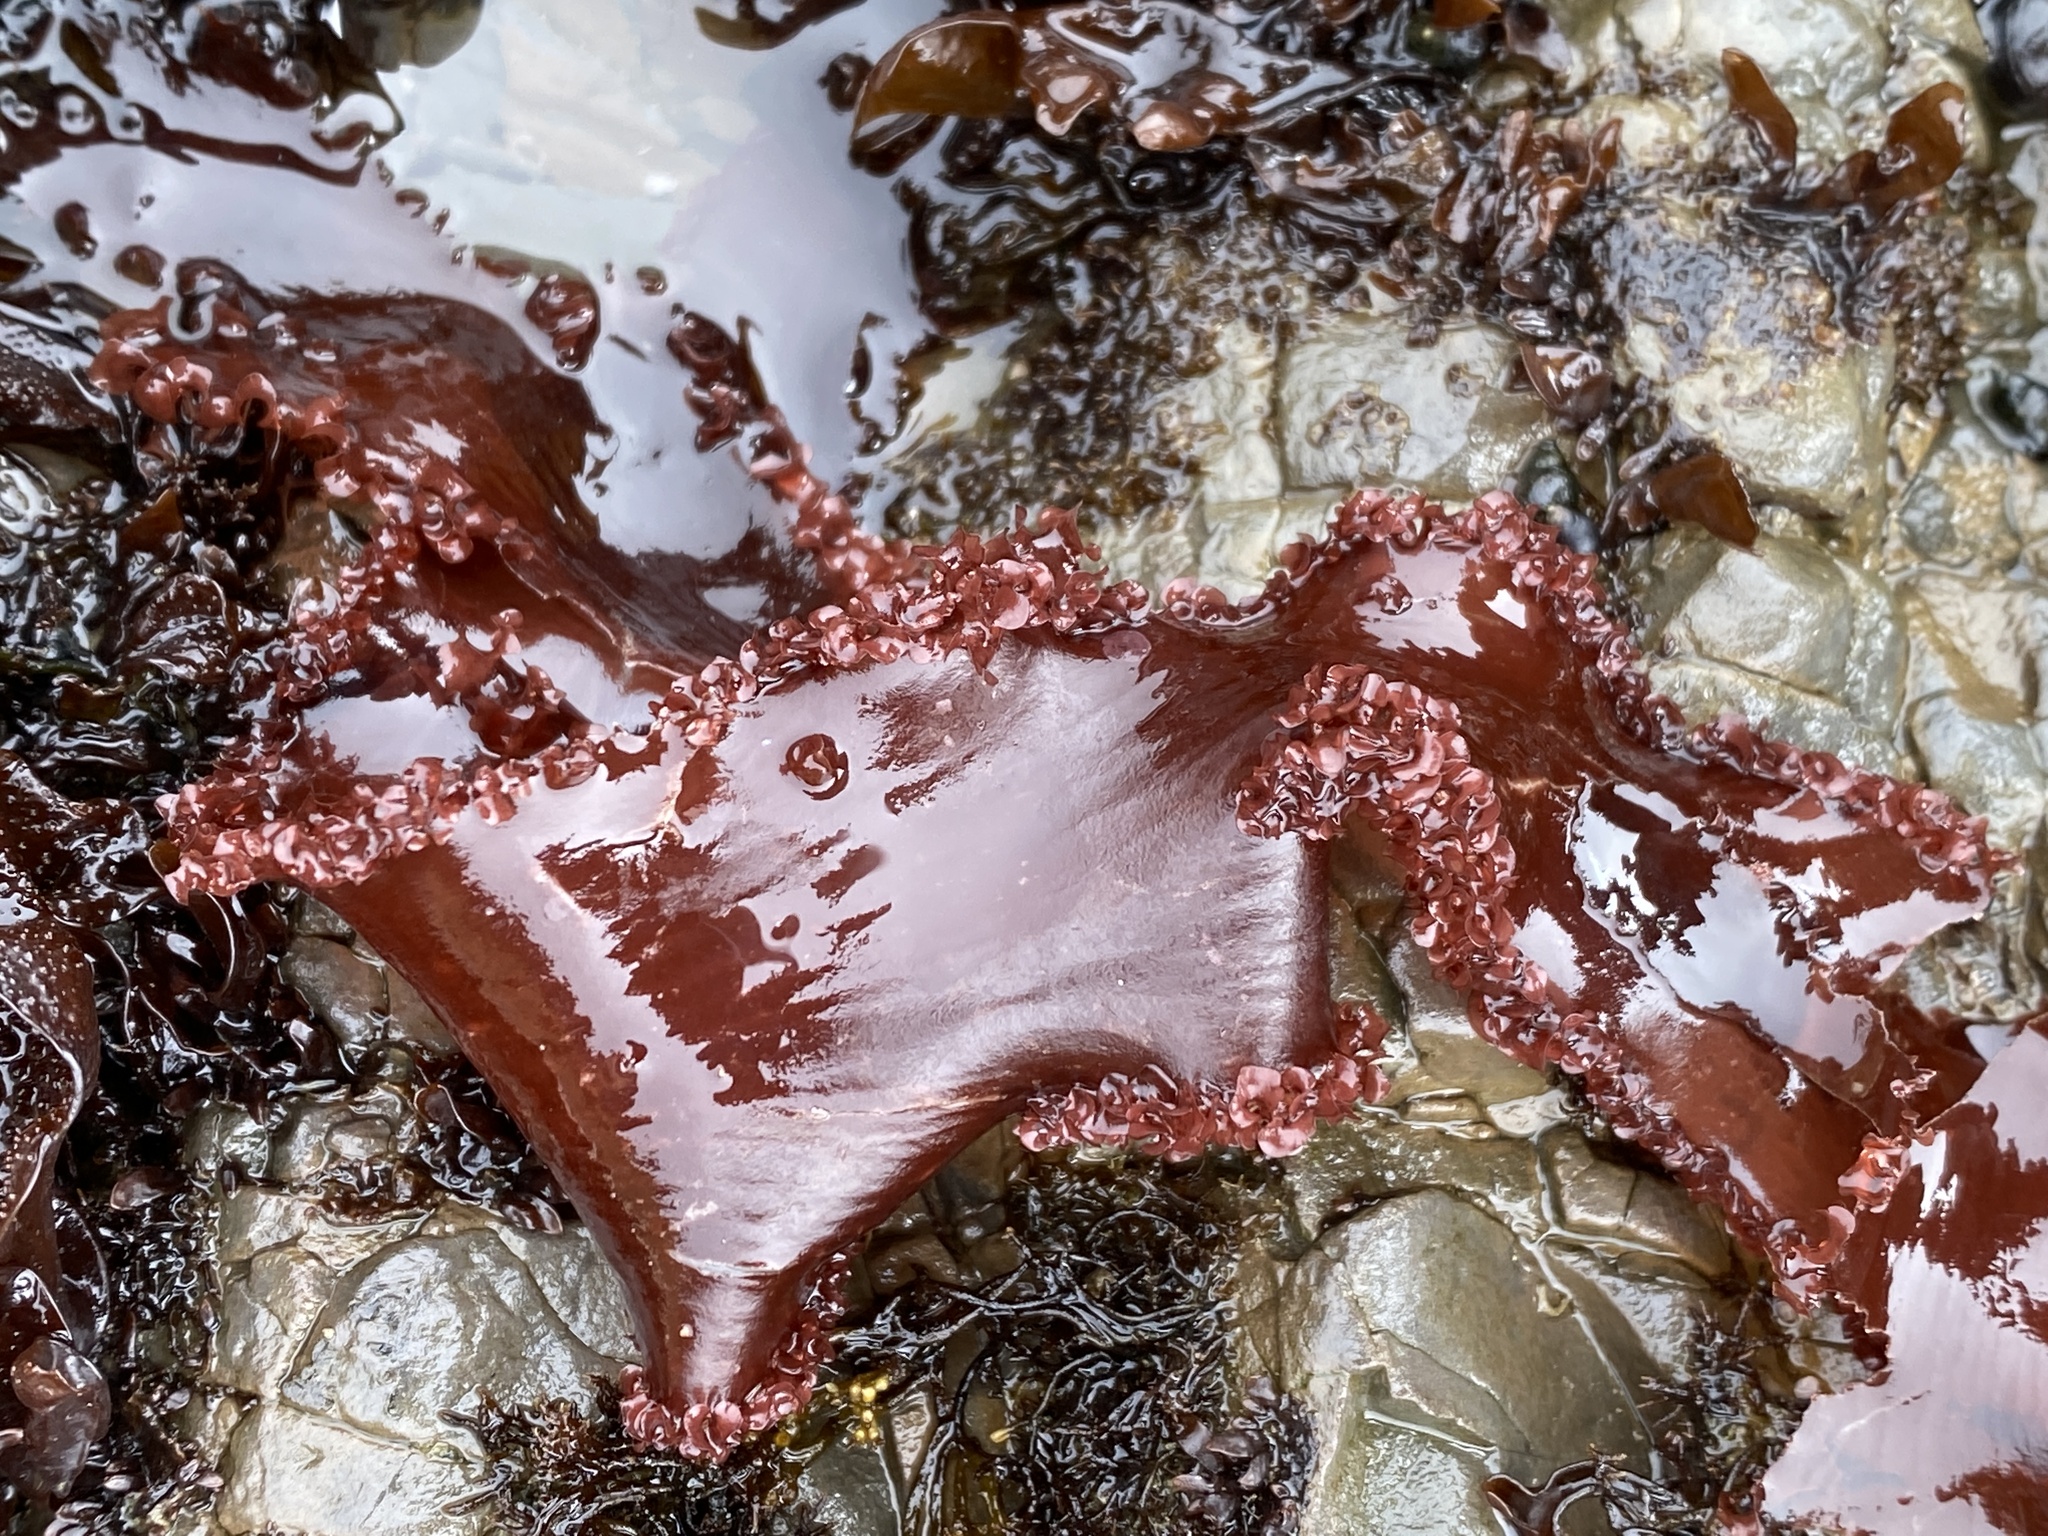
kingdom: Plantae
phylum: Rhodophyta
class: Florideophyceae
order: Ceramiales
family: Delesseriaceae
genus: Cryptopleura
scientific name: Cryptopleura ruprechtiana
